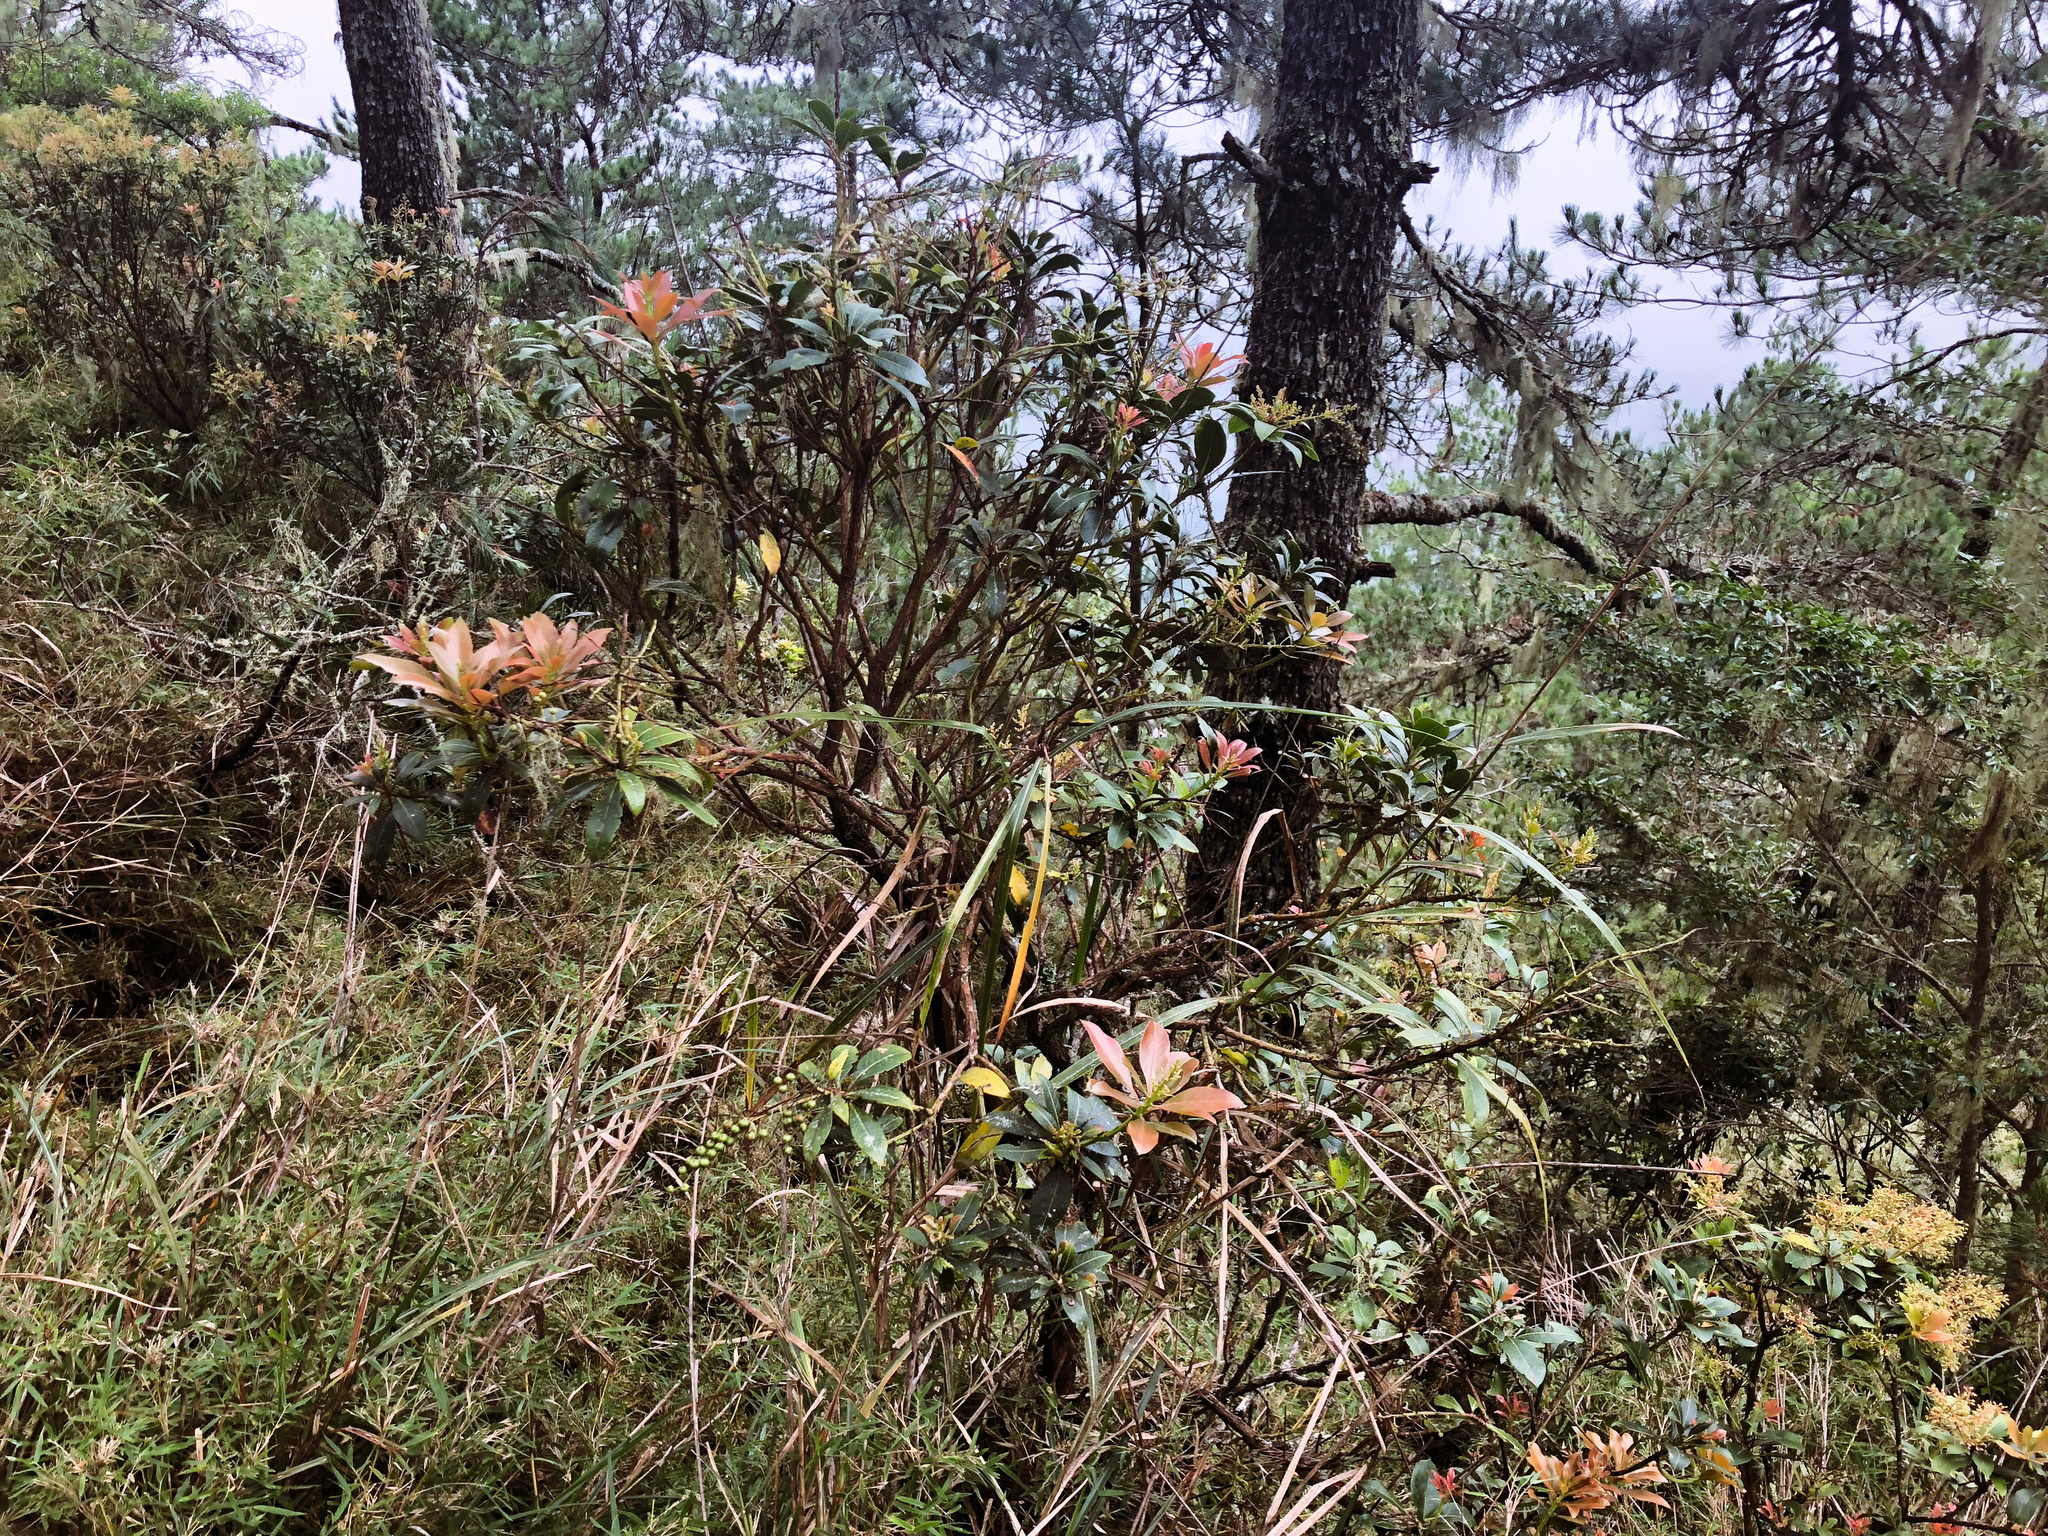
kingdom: Plantae
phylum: Tracheophyta
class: Magnoliopsida
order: Ericales
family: Ericaceae
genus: Pieris
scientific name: Pieris japonica
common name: Japanese pieris
